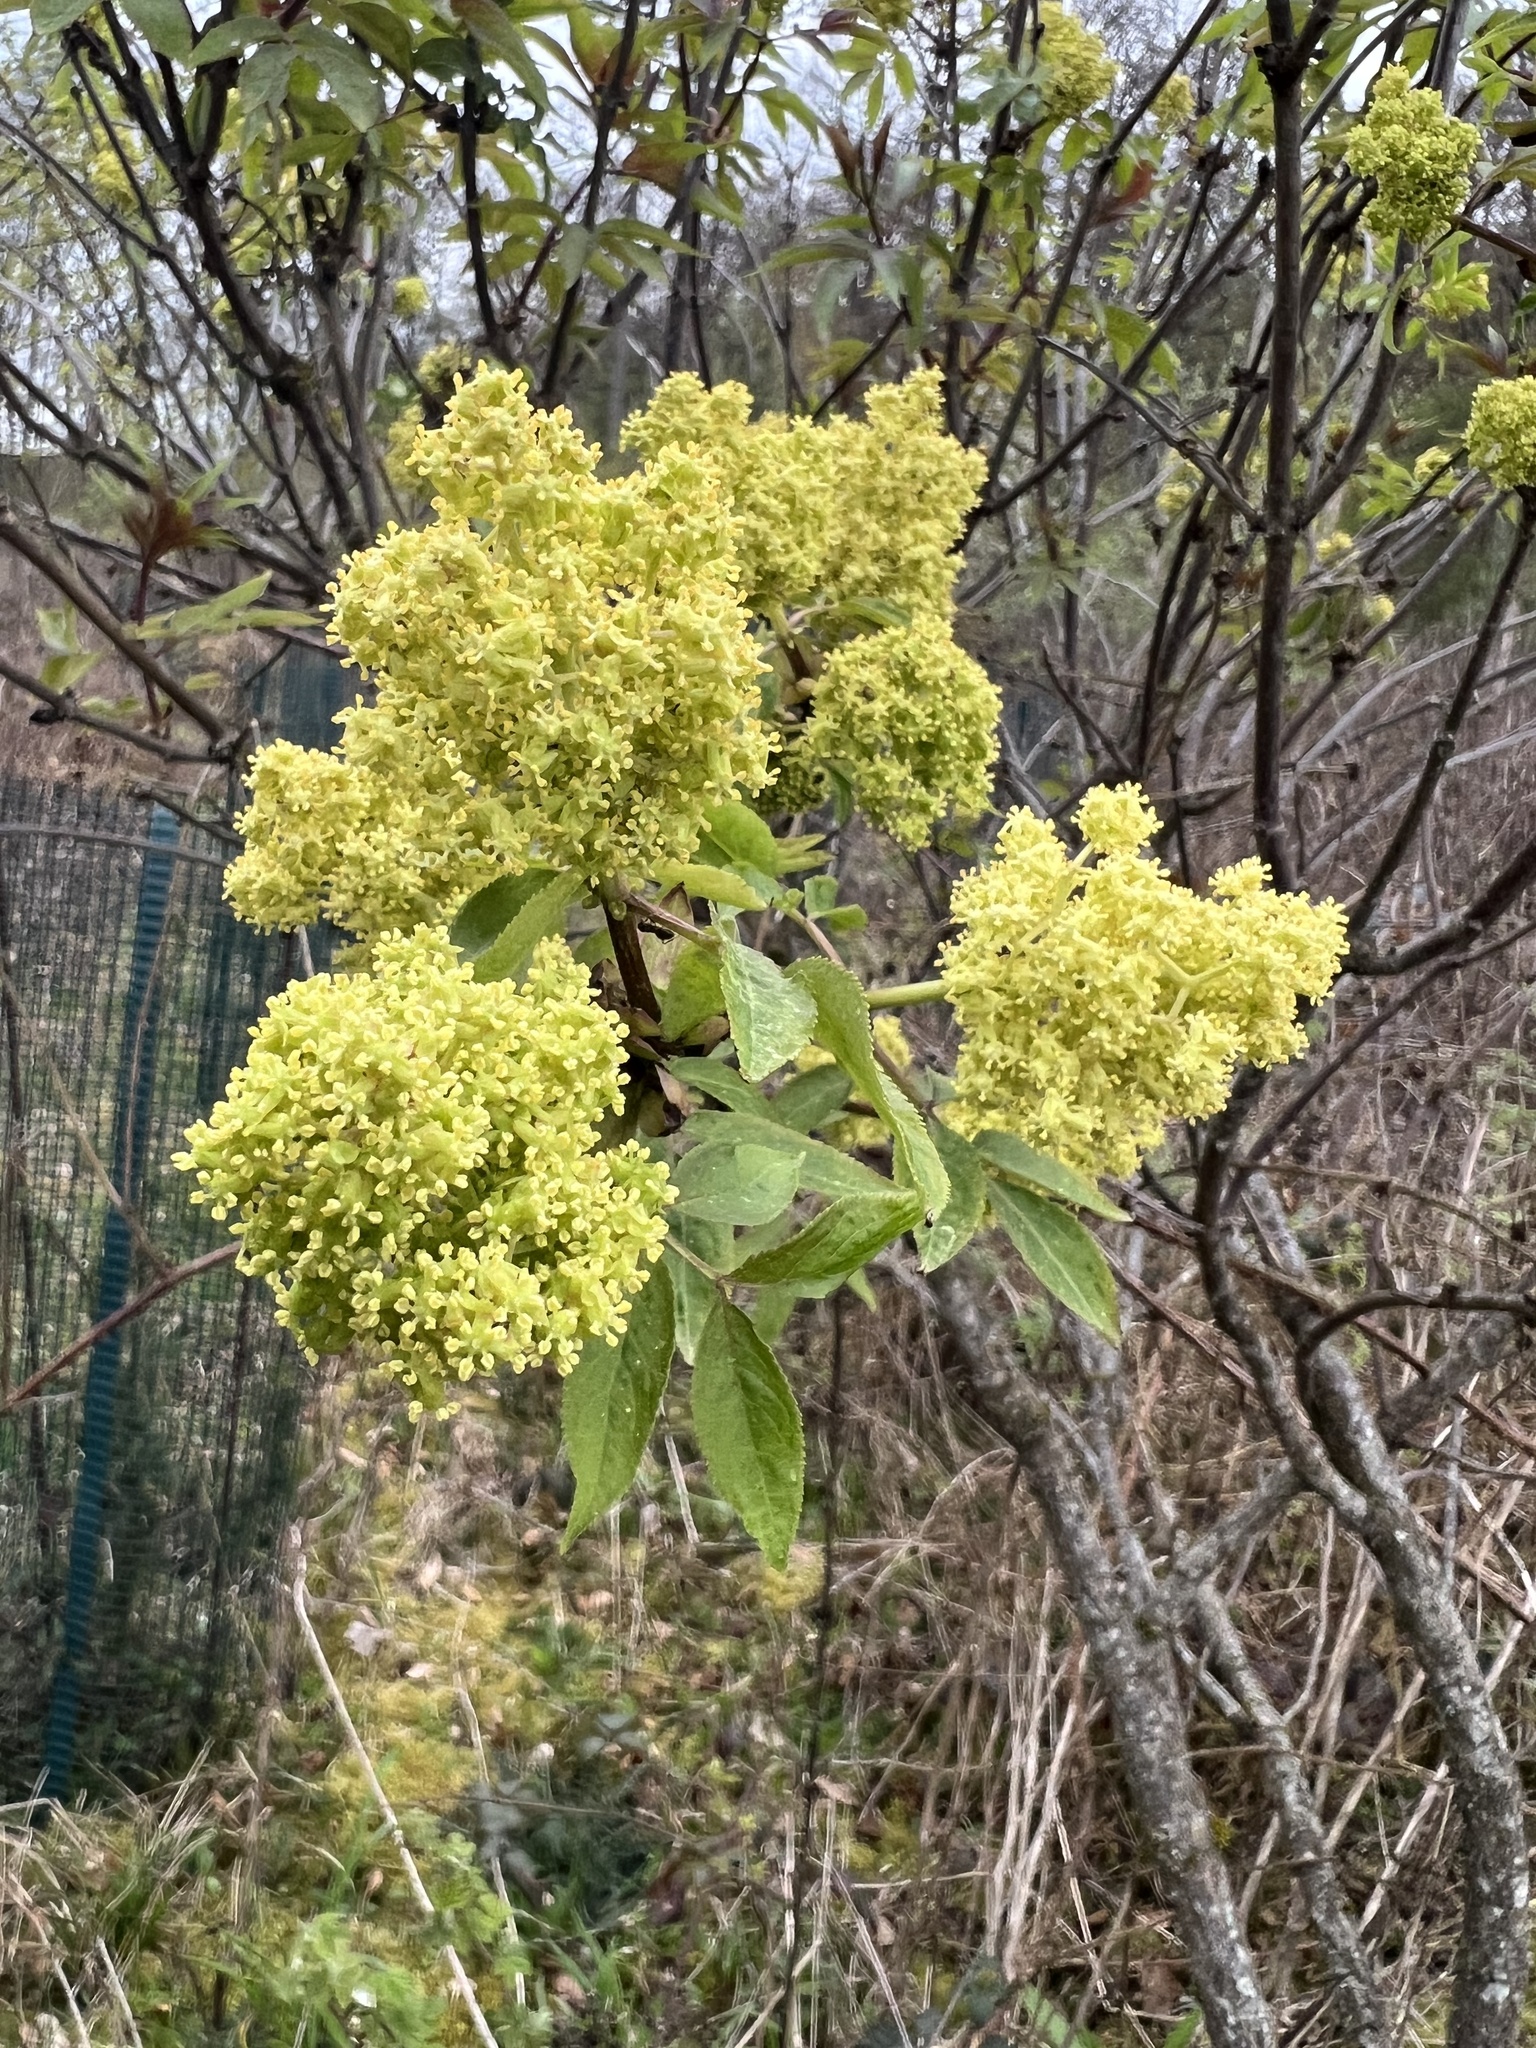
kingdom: Plantae
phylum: Tracheophyta
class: Magnoliopsida
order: Dipsacales
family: Viburnaceae
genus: Sambucus
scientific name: Sambucus racemosa
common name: Red-berried elder
